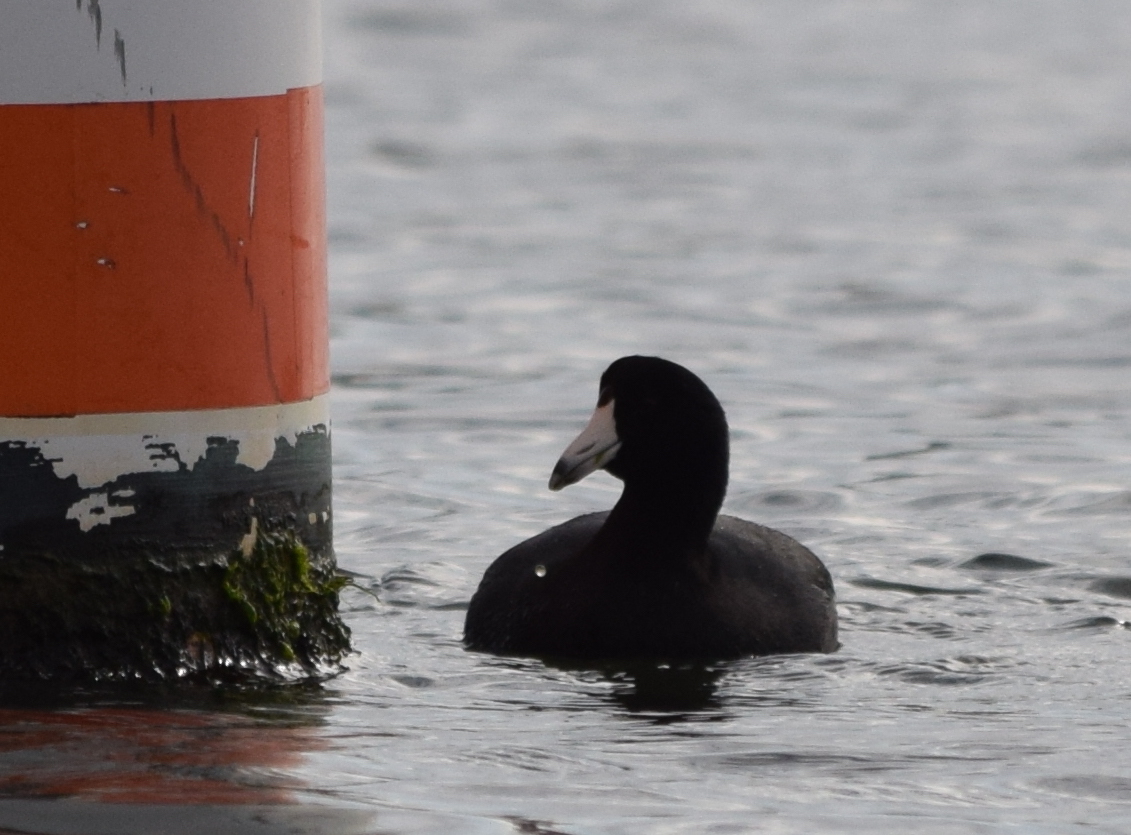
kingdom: Animalia
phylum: Chordata
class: Aves
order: Gruiformes
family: Rallidae
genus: Fulica
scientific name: Fulica americana
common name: American coot
